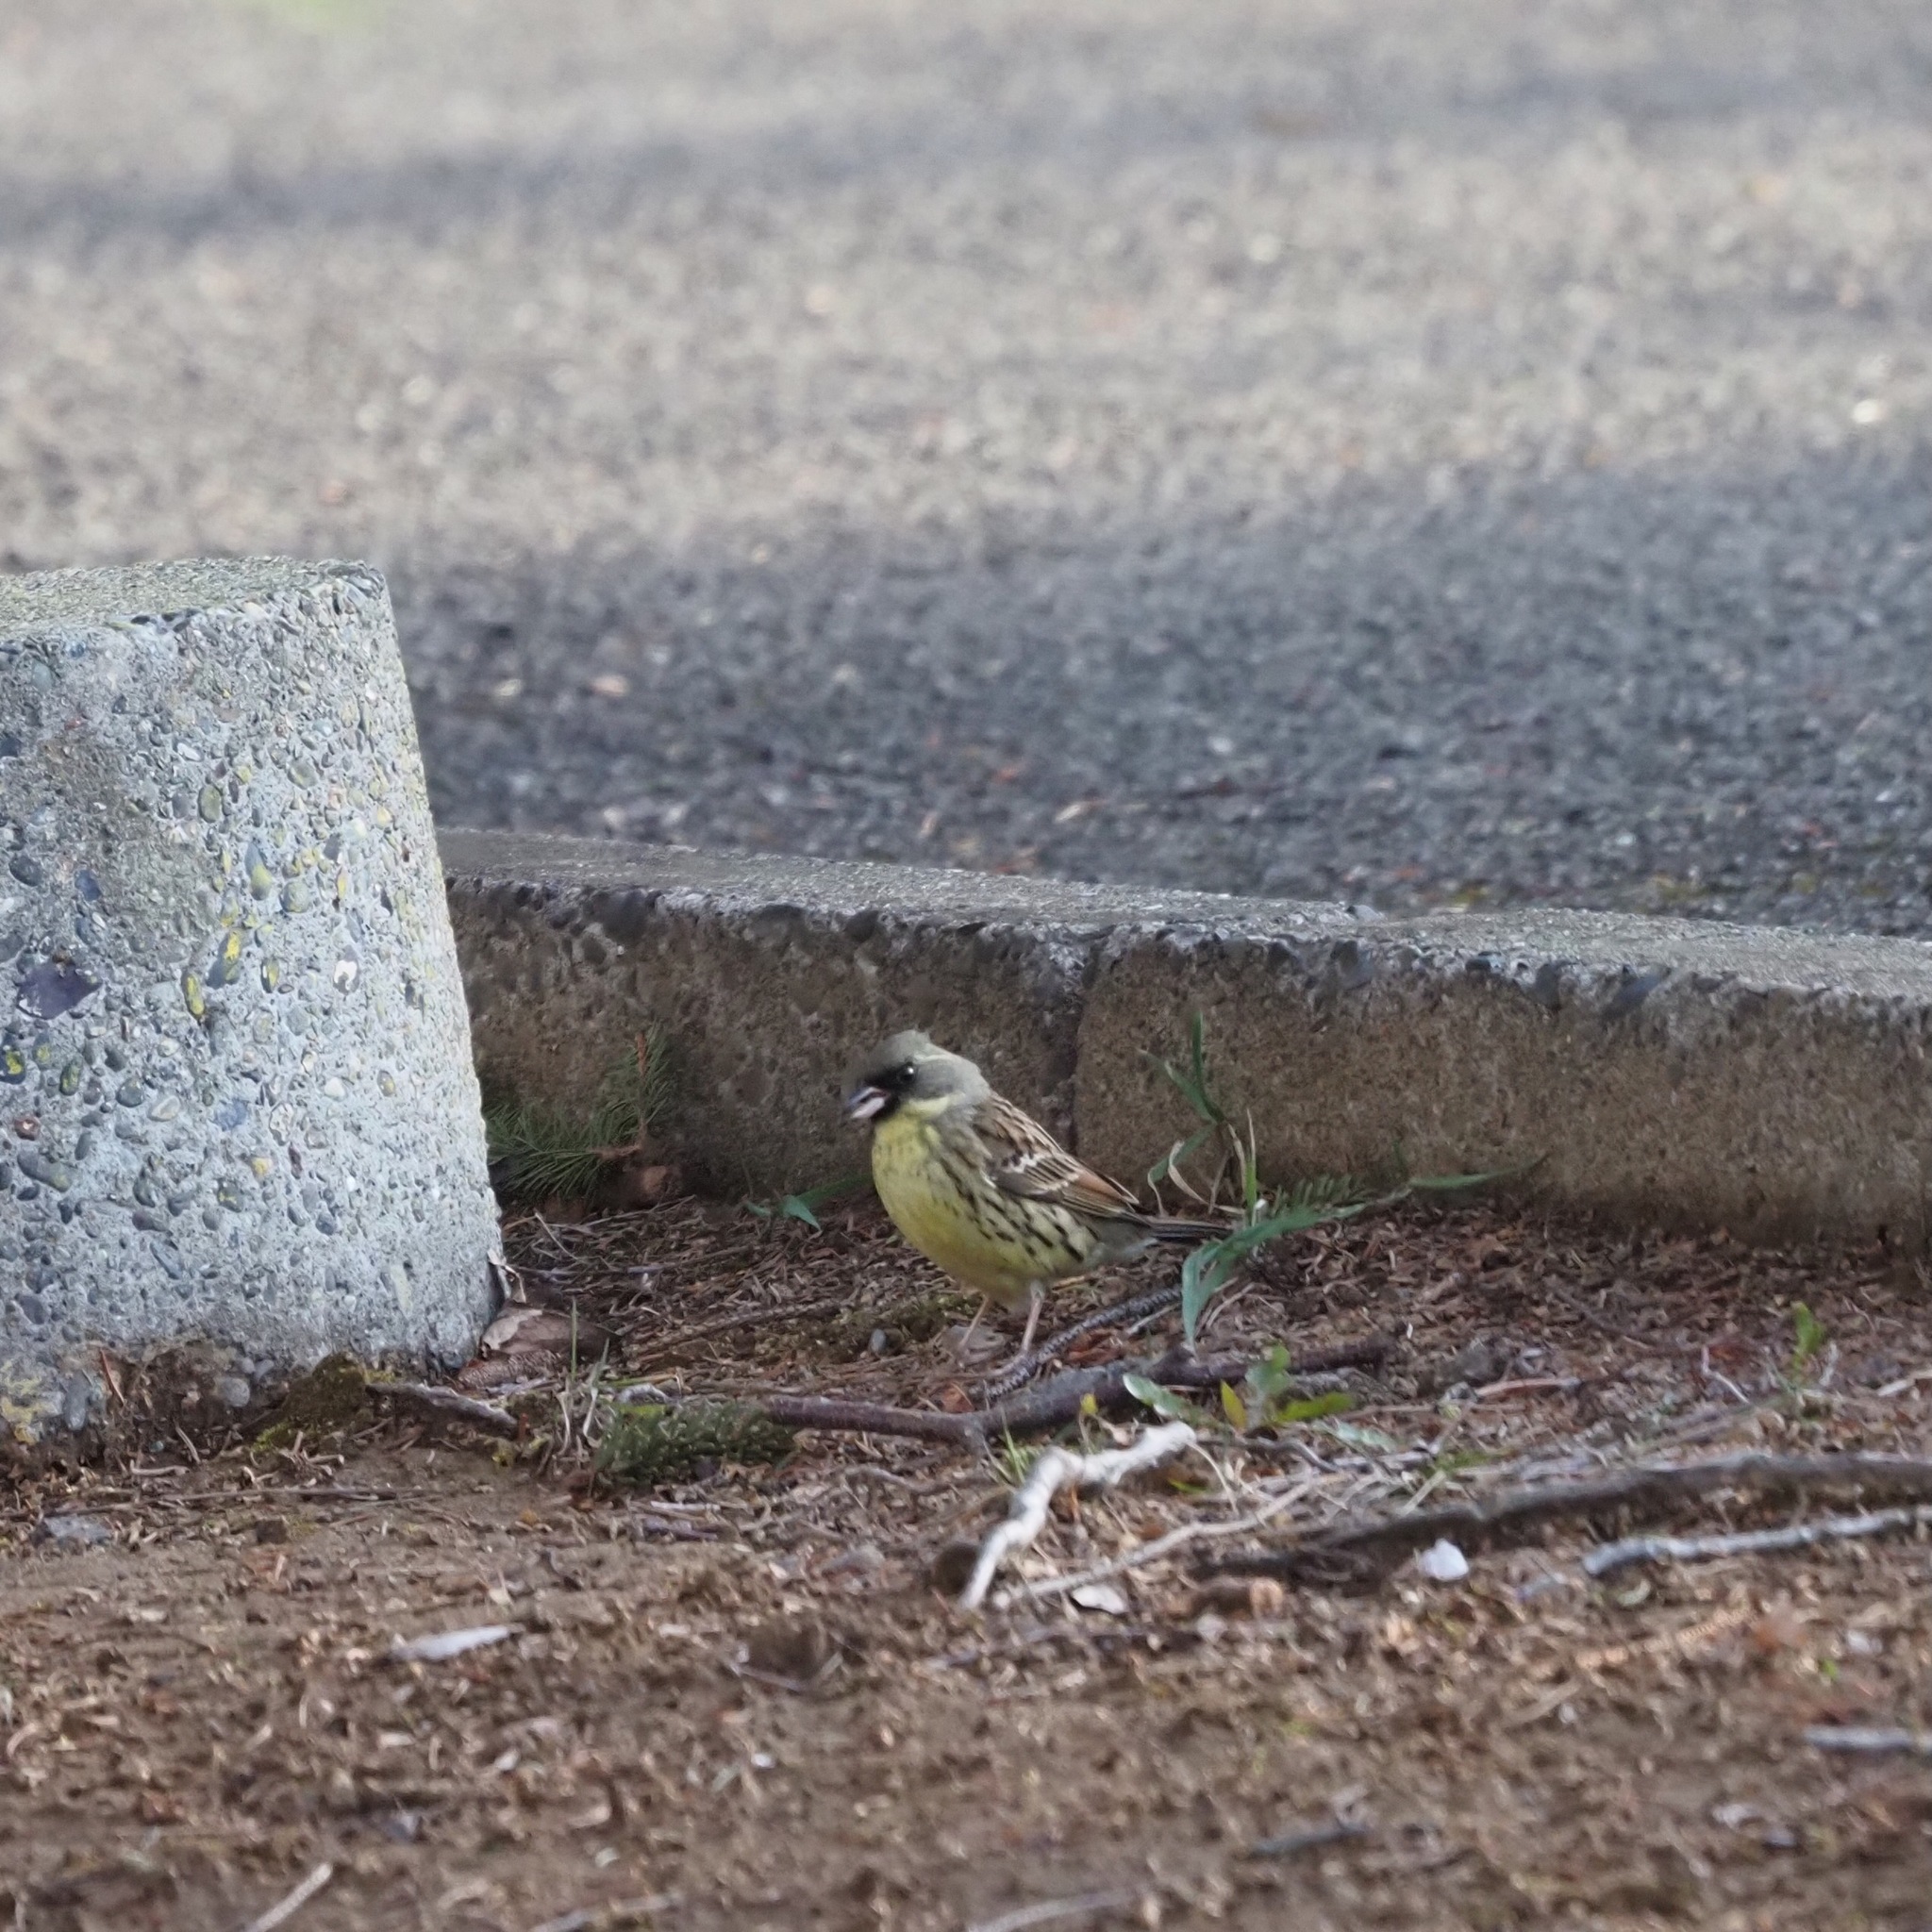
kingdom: Animalia
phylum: Chordata
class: Aves
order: Passeriformes
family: Emberizidae
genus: Emberiza
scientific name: Emberiza personata
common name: Masked bunting
